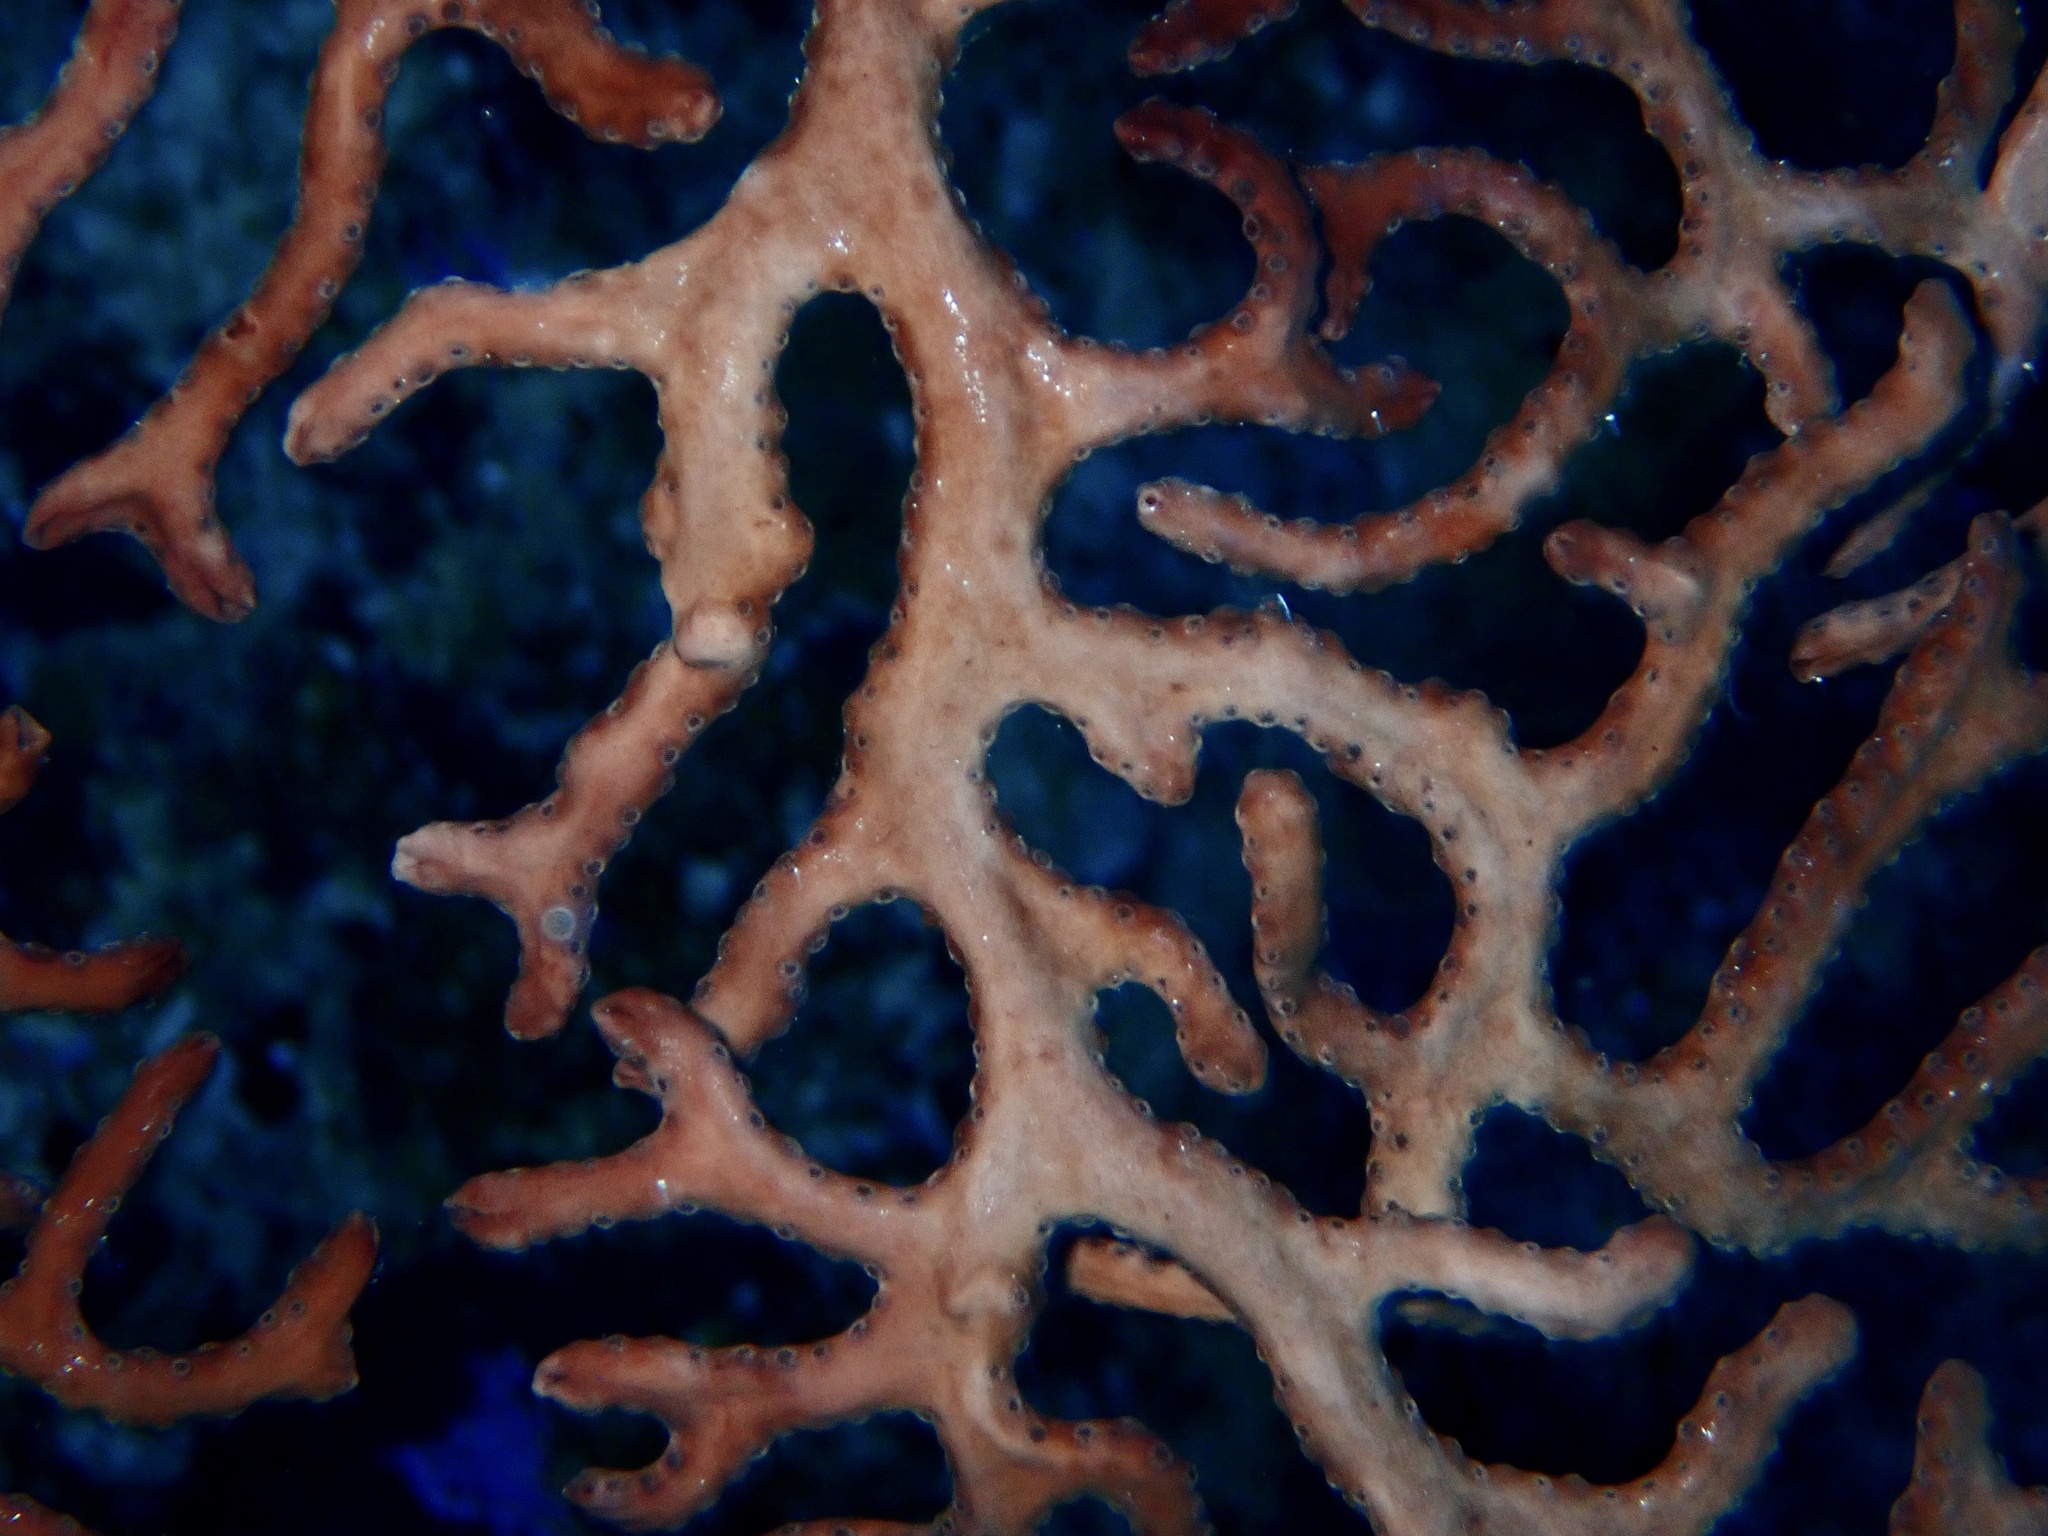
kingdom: Animalia
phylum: Cnidaria
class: Anthozoa
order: Malacalcyonacea
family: Melithaeidae
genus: Iciligorgia
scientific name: Iciligorgia schrammi
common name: Black sea fan
